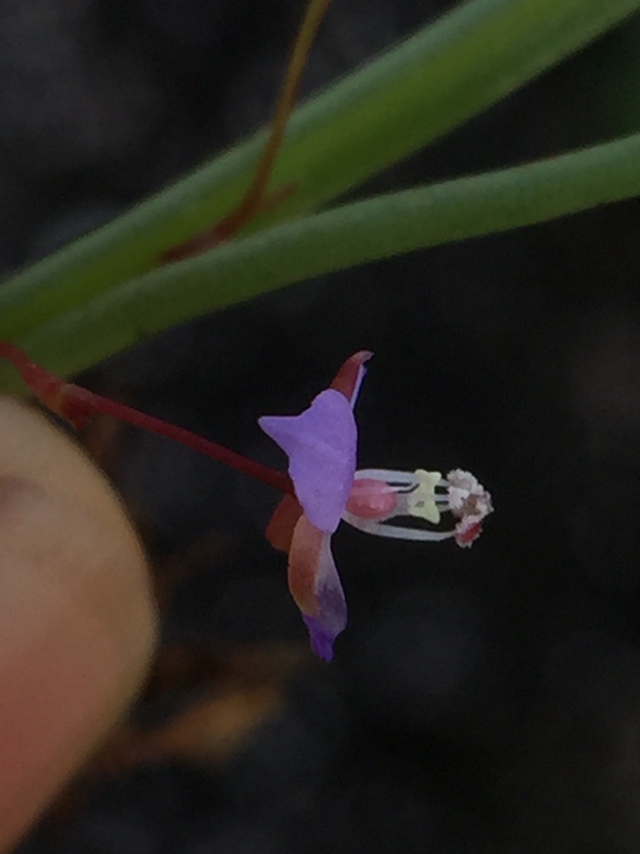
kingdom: Plantae
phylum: Tracheophyta
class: Liliopsida
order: Commelinales
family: Commelinaceae
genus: Murdannia
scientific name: Murdannia semiteres
